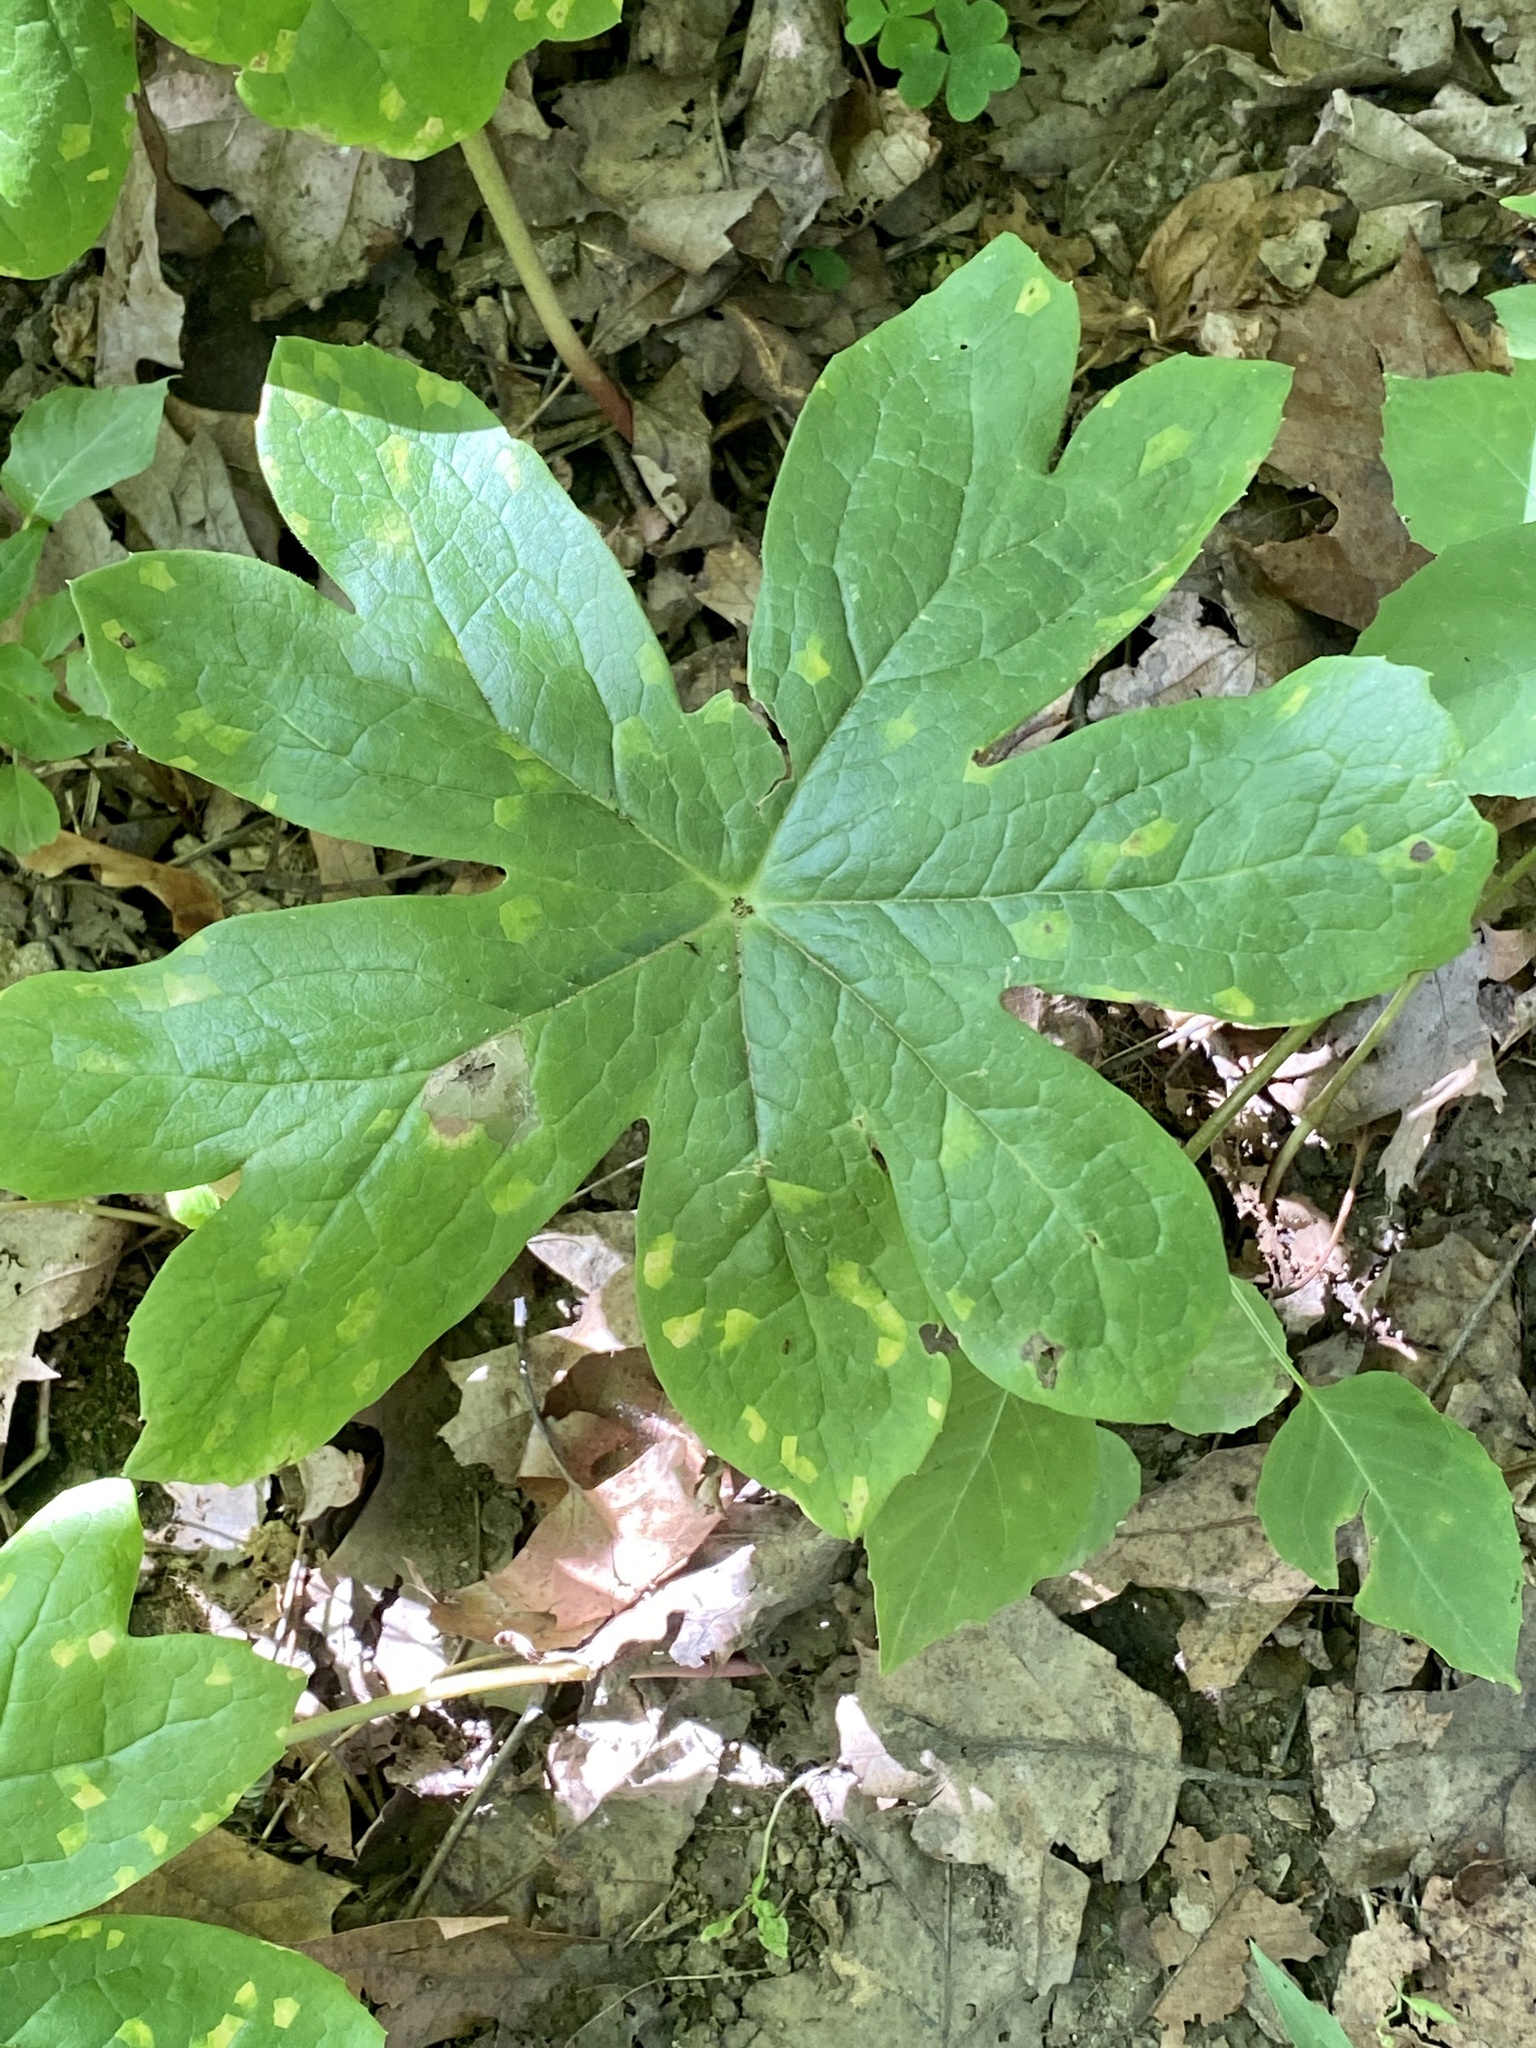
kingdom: Plantae
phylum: Tracheophyta
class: Magnoliopsida
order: Ranunculales
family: Berberidaceae
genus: Podophyllum
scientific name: Podophyllum peltatum
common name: Wild mandrake
